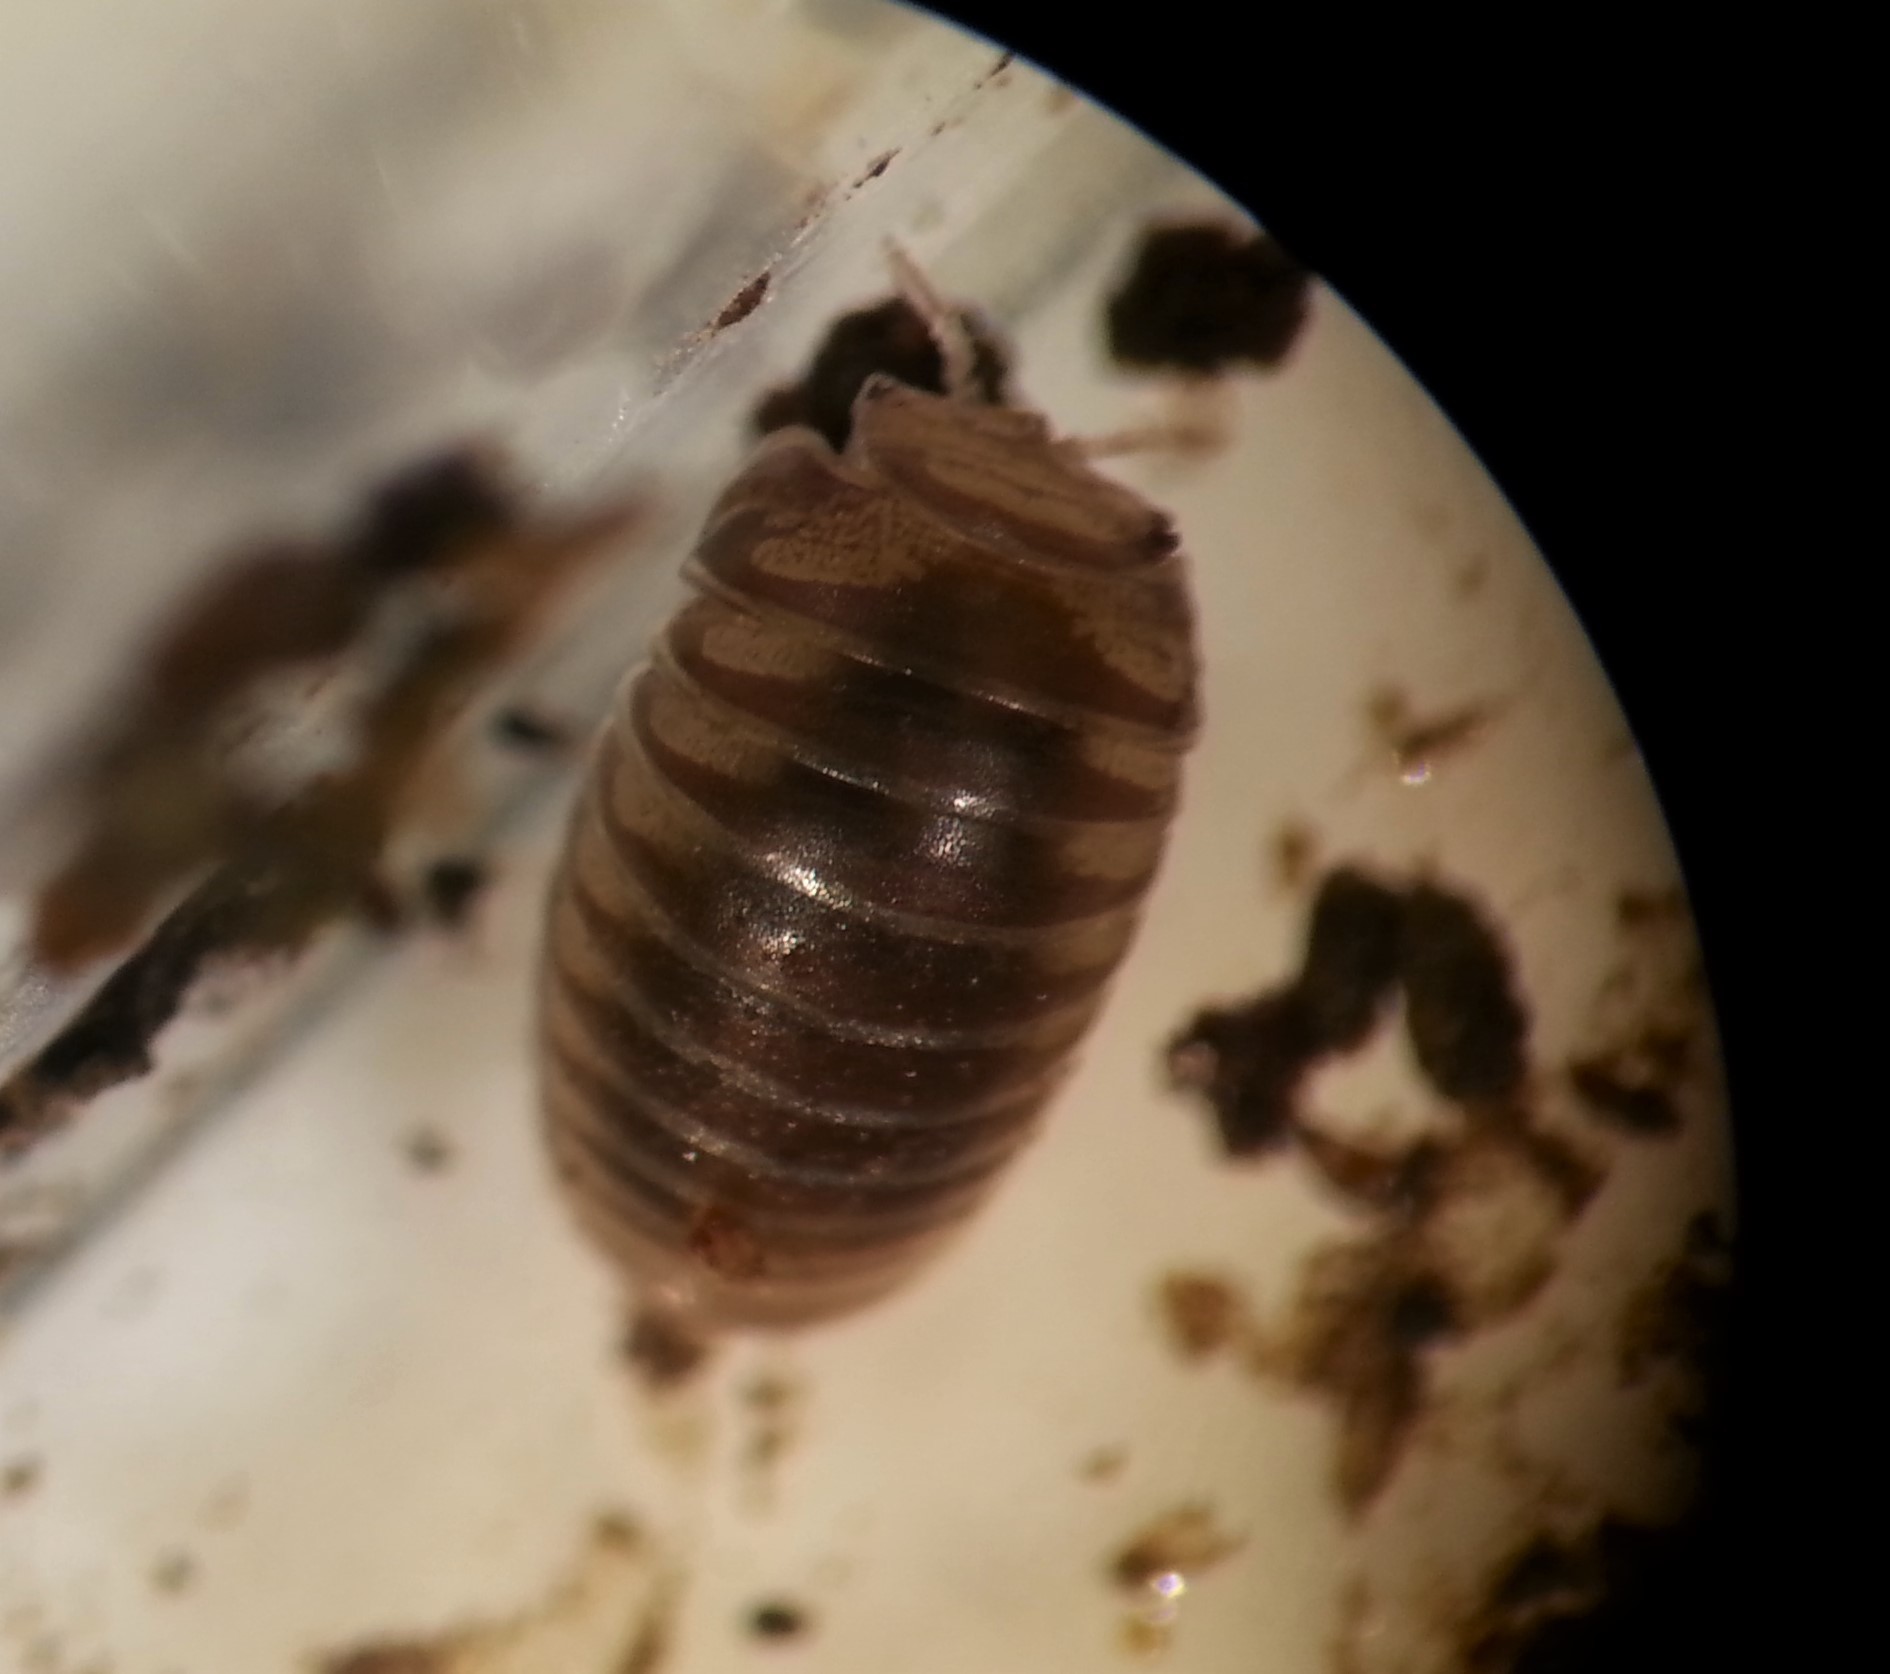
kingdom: Animalia
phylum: Arthropoda
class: Diplopoda
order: Glomerida
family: Glomeridae
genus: Onomeris
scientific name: Onomeris australora
